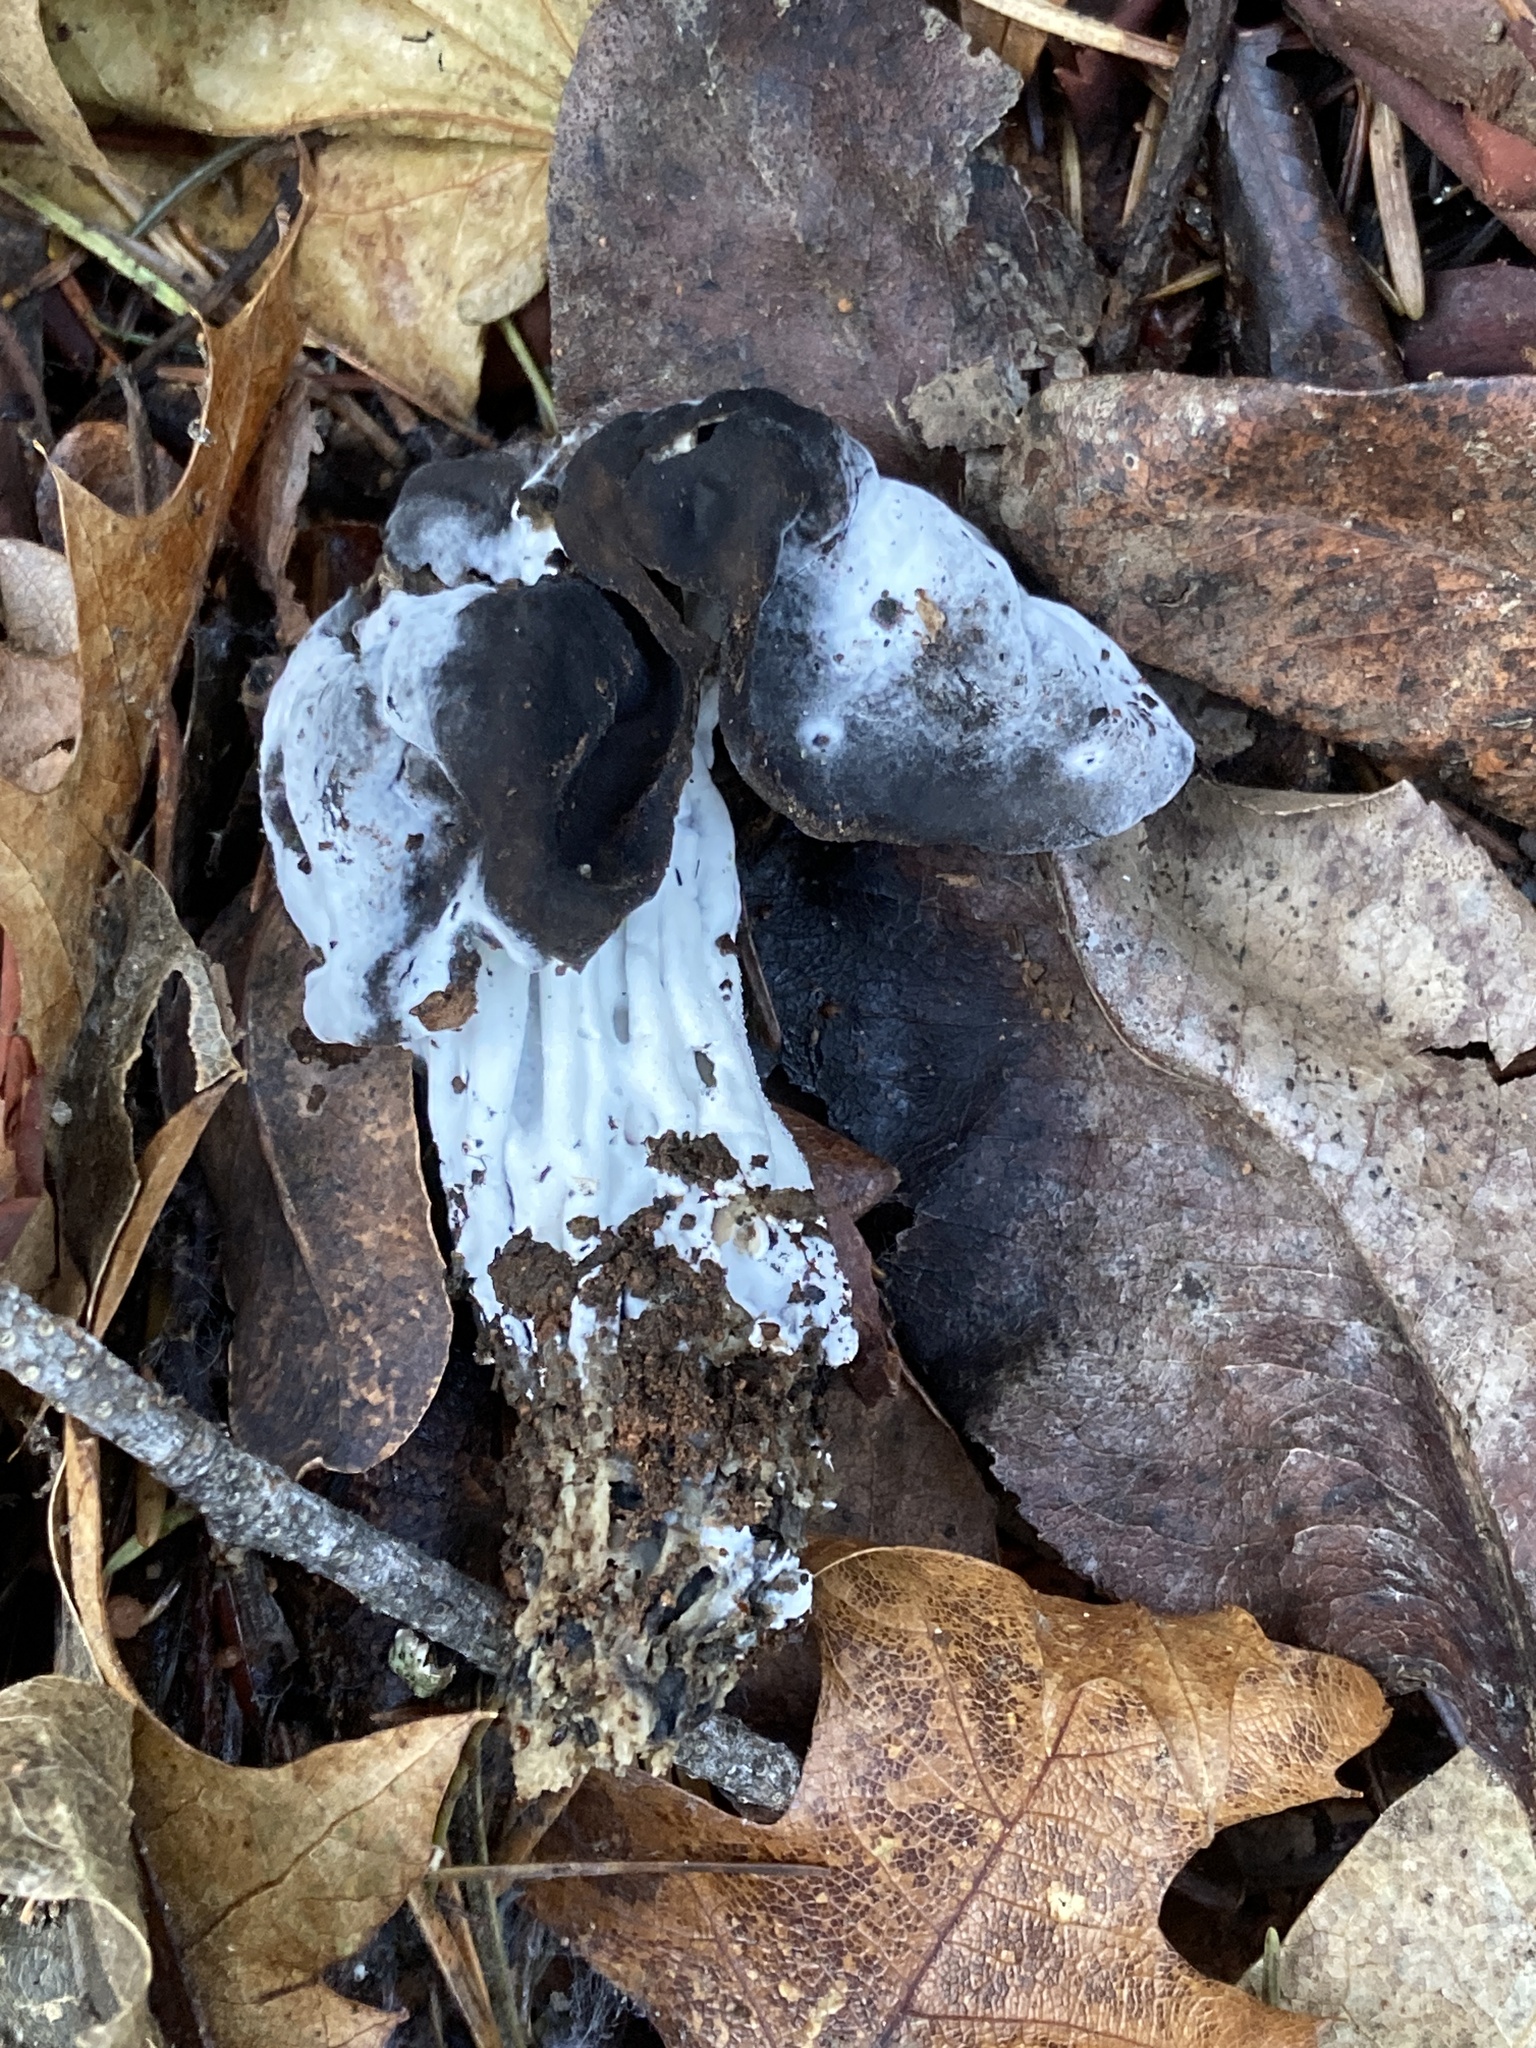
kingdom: Fungi
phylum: Ascomycota
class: Sordariomycetes
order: Hypocreales
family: Hypocreaceae
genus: Hypomyces
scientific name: Hypomyces cervinus
